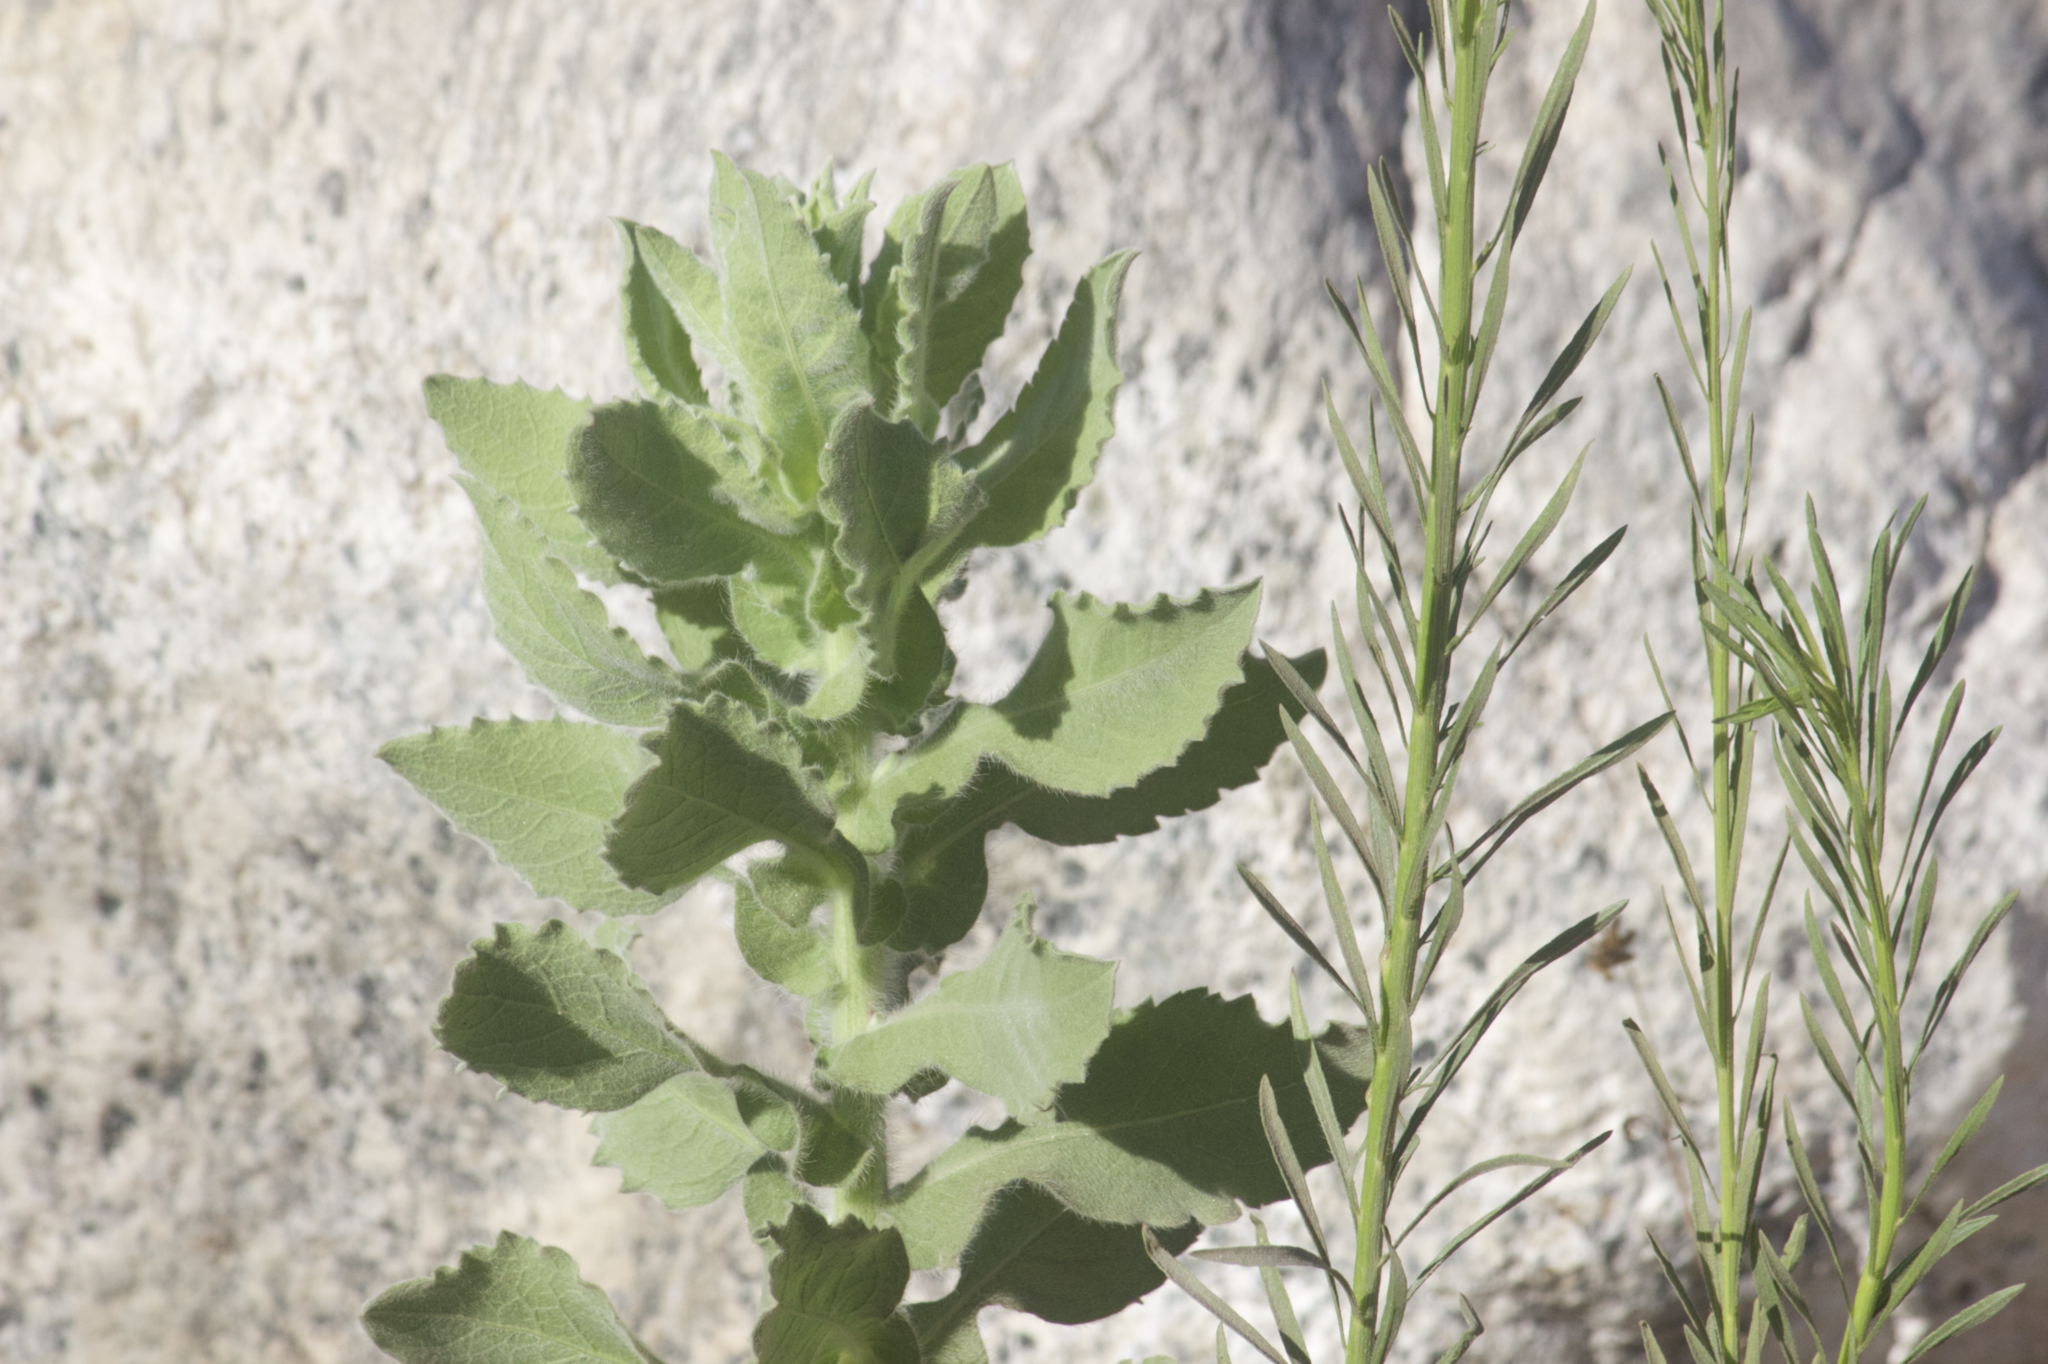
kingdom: Plantae
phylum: Tracheophyta
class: Magnoliopsida
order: Asterales
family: Asteraceae
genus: Heterotheca
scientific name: Heterotheca grandiflora
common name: Telegraphweed
